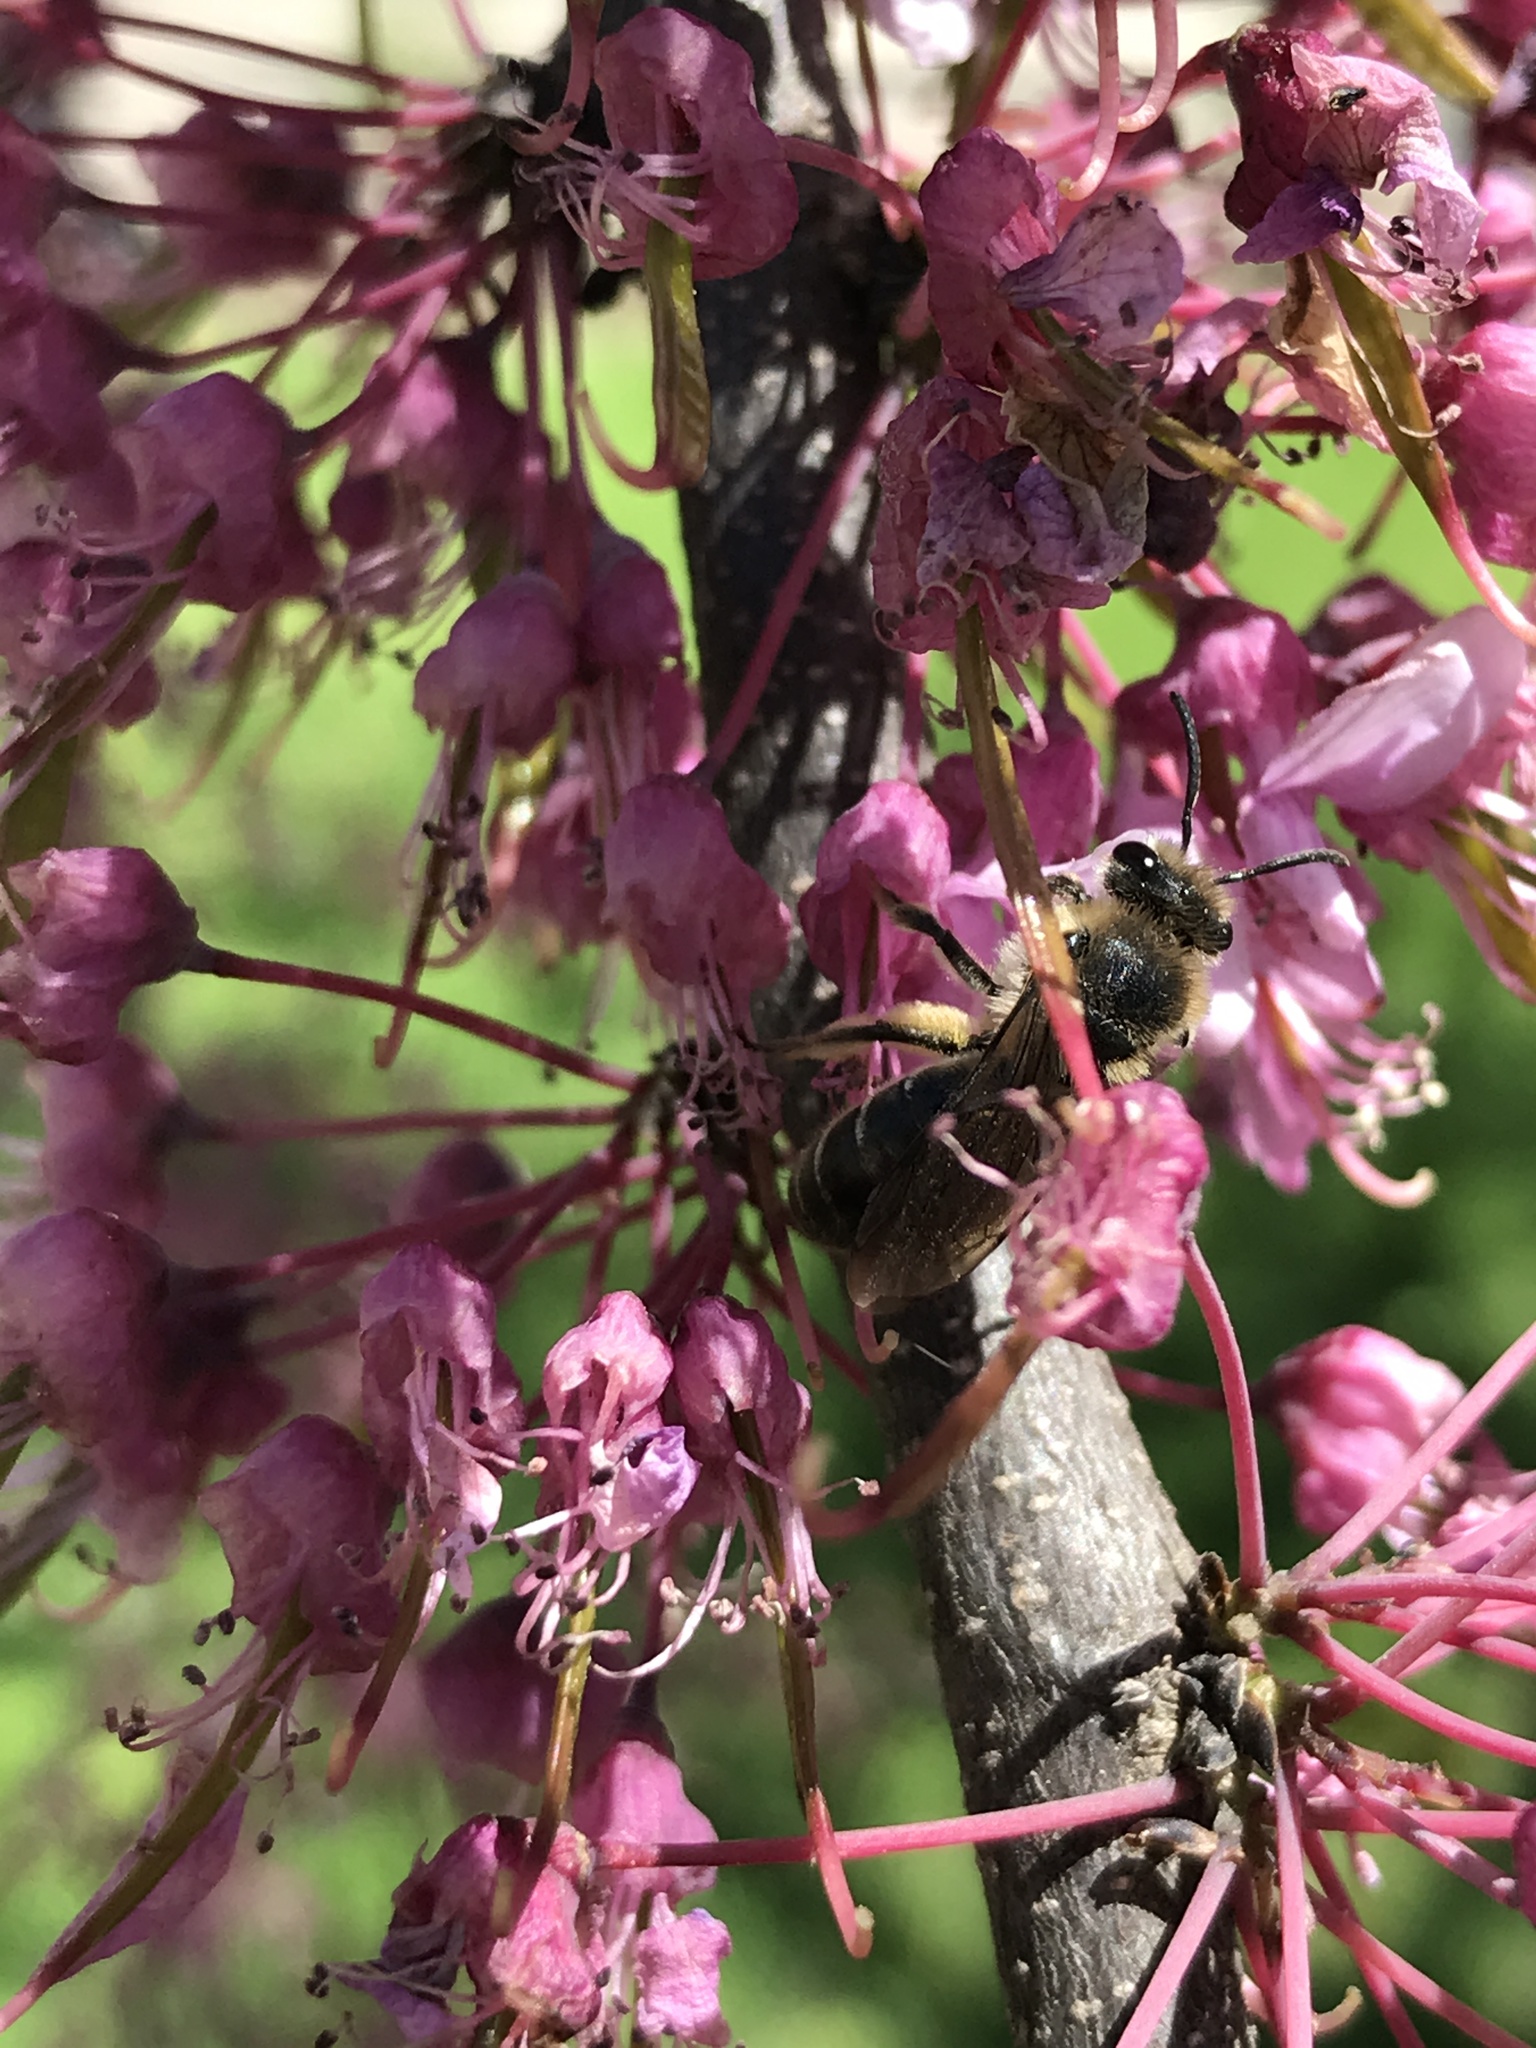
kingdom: Animalia
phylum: Arthropoda
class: Insecta
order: Hymenoptera
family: Andrenidae
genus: Andrena
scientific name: Andrena
